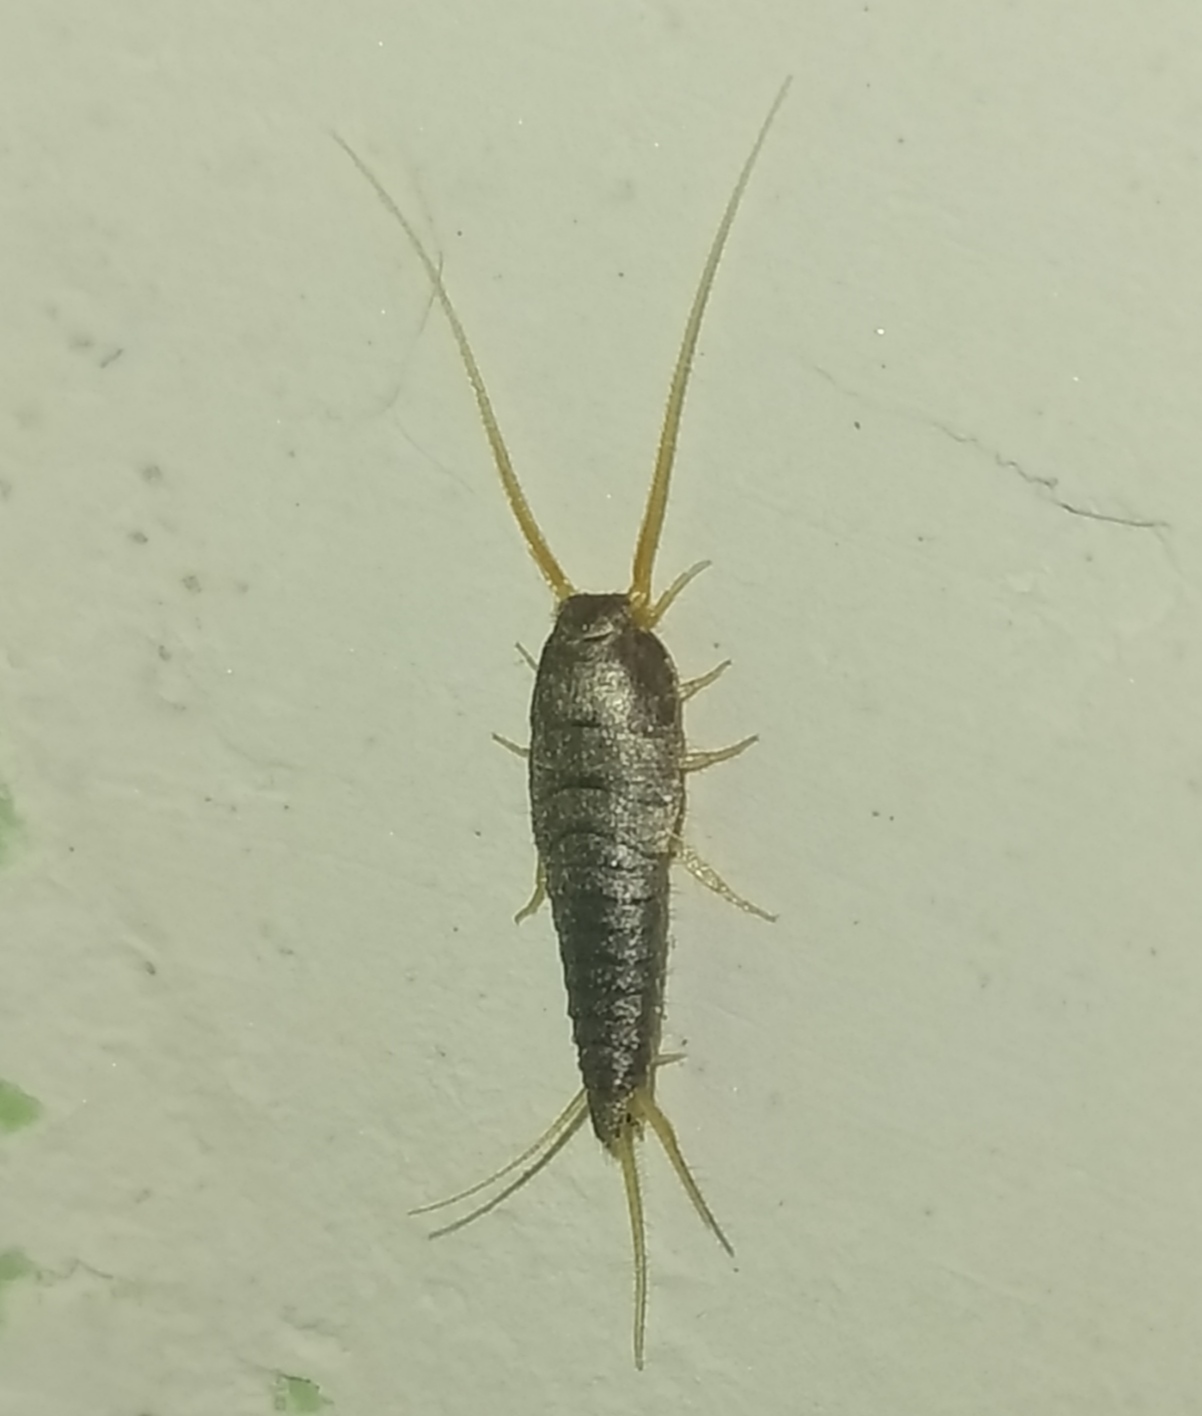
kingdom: Animalia
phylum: Arthropoda
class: Insecta
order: Zygentoma
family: Lepismatidae
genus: Lepisma
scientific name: Lepisma saccharinum
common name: Silverfish
